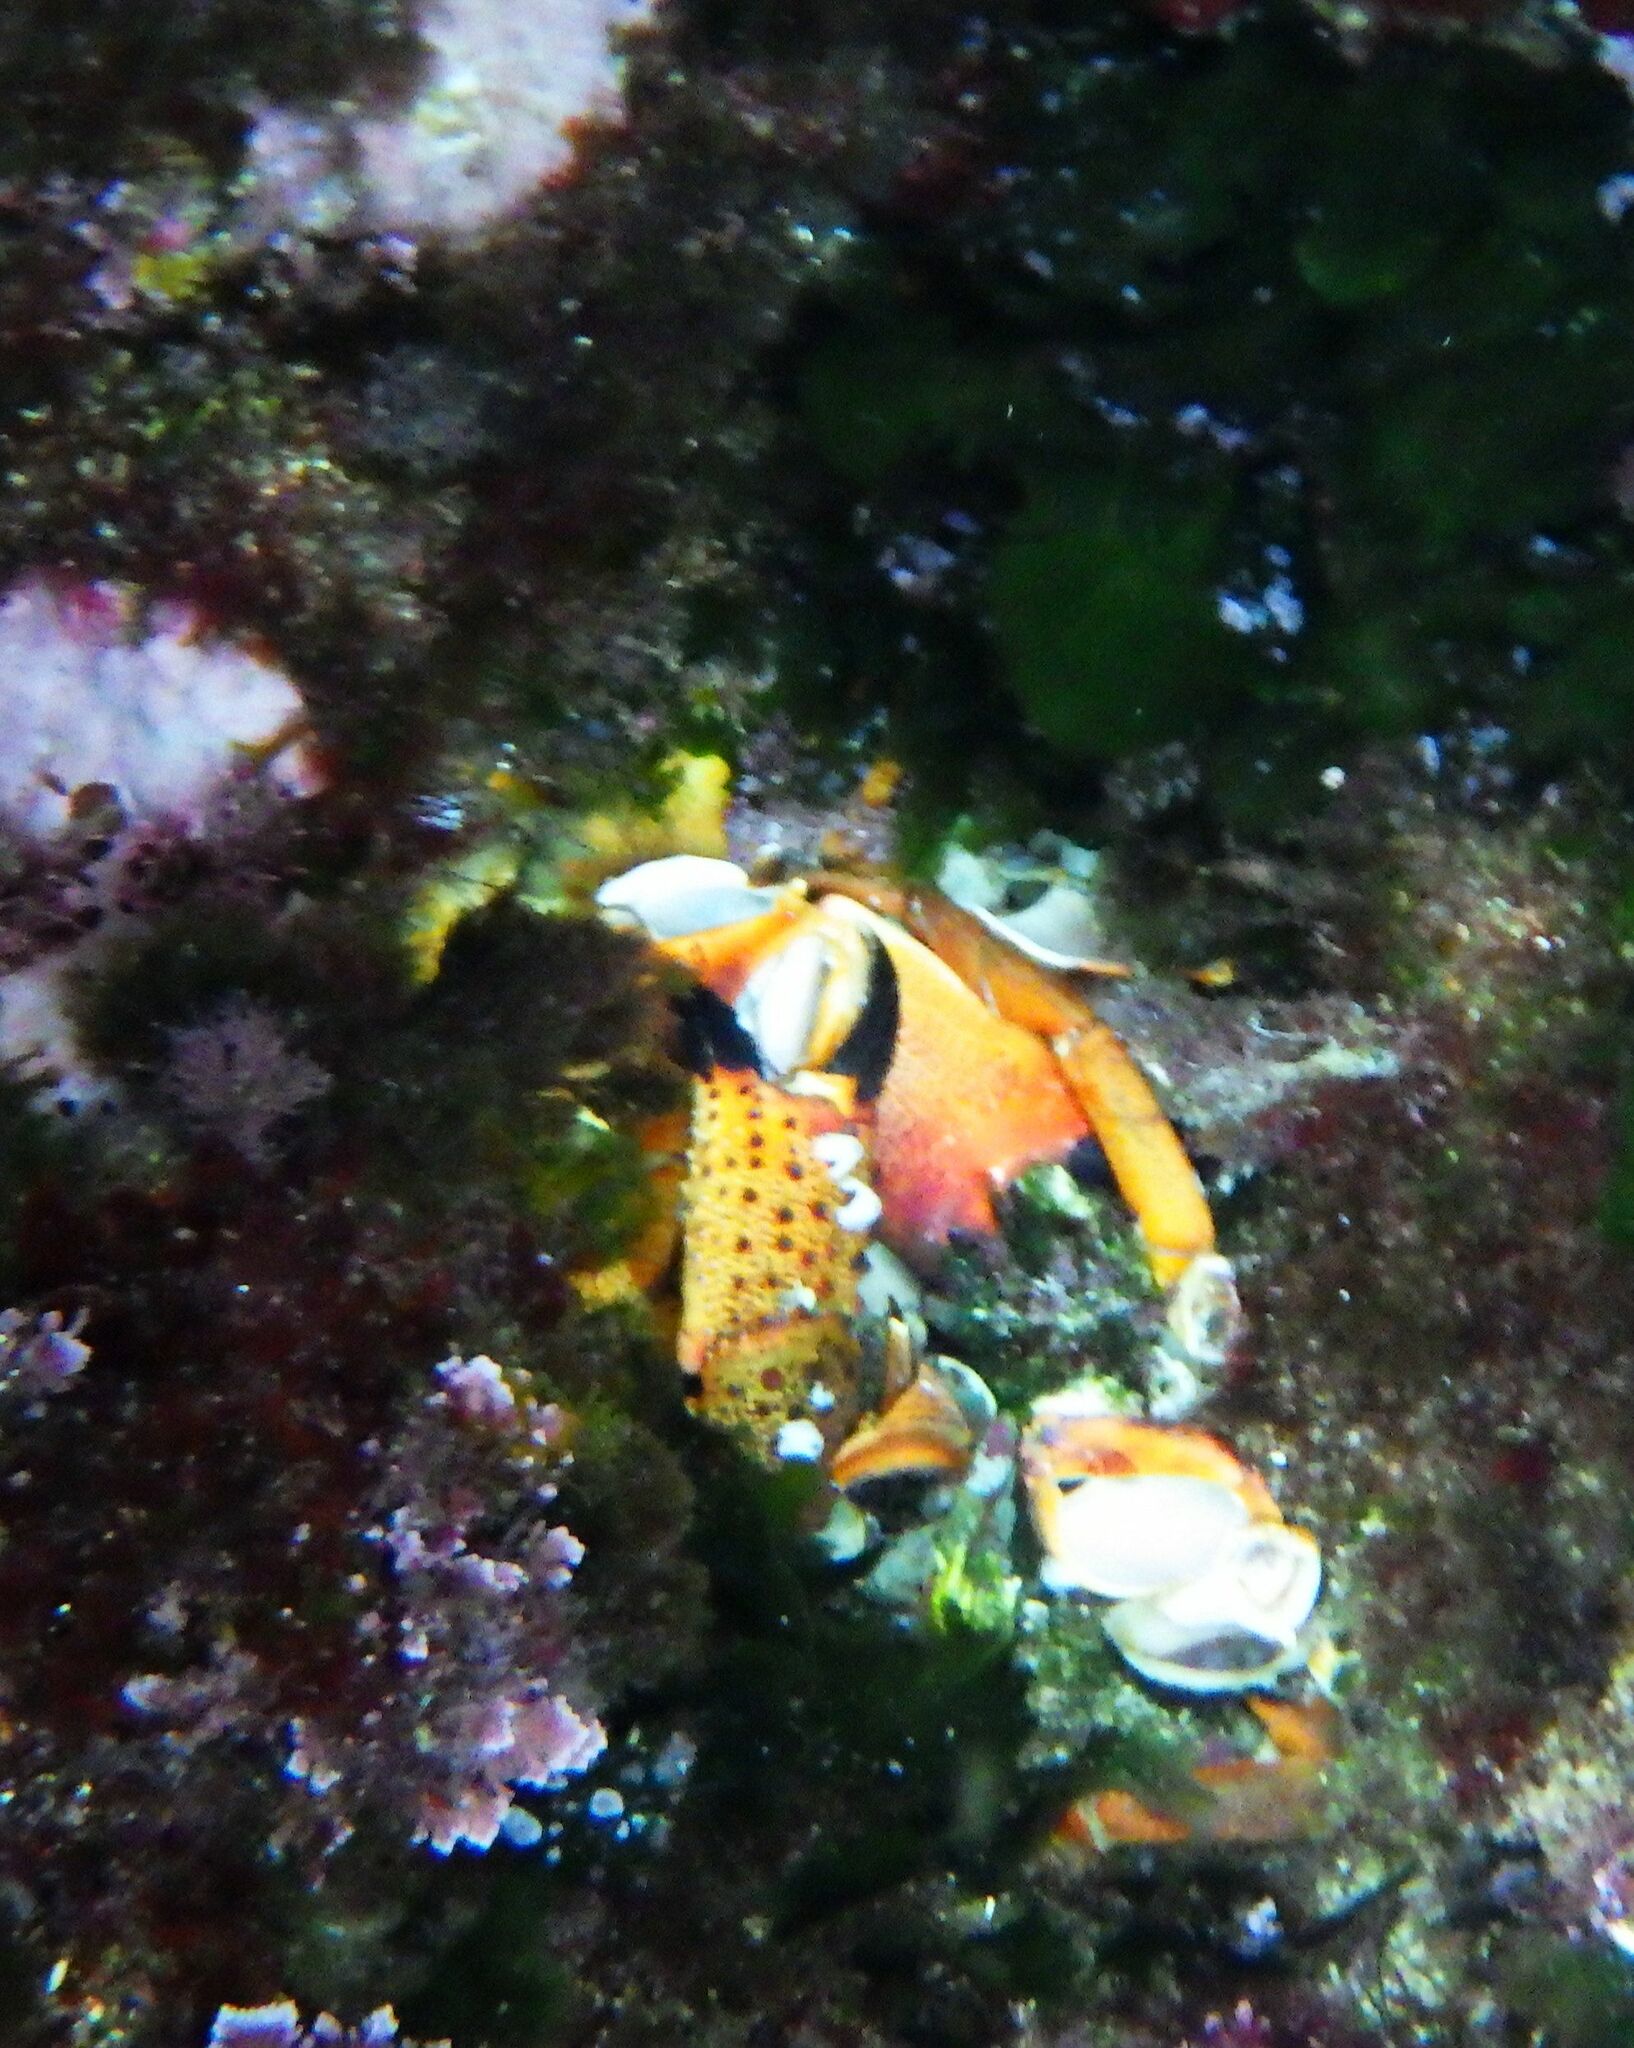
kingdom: Animalia
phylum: Arthropoda
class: Malacostraca
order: Decapoda
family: Eriphiidae
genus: Eriphia
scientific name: Eriphia verrucosa
